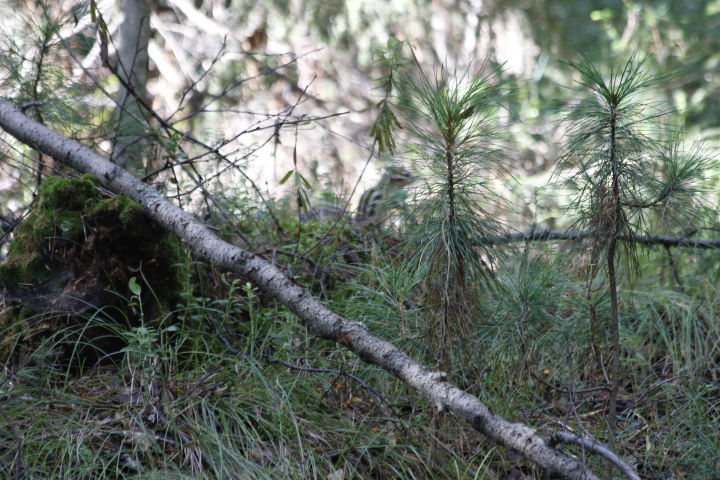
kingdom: Animalia
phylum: Chordata
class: Mammalia
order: Rodentia
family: Sciuridae
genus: Tamias
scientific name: Tamias sibiricus
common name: Siberian chipmunk
